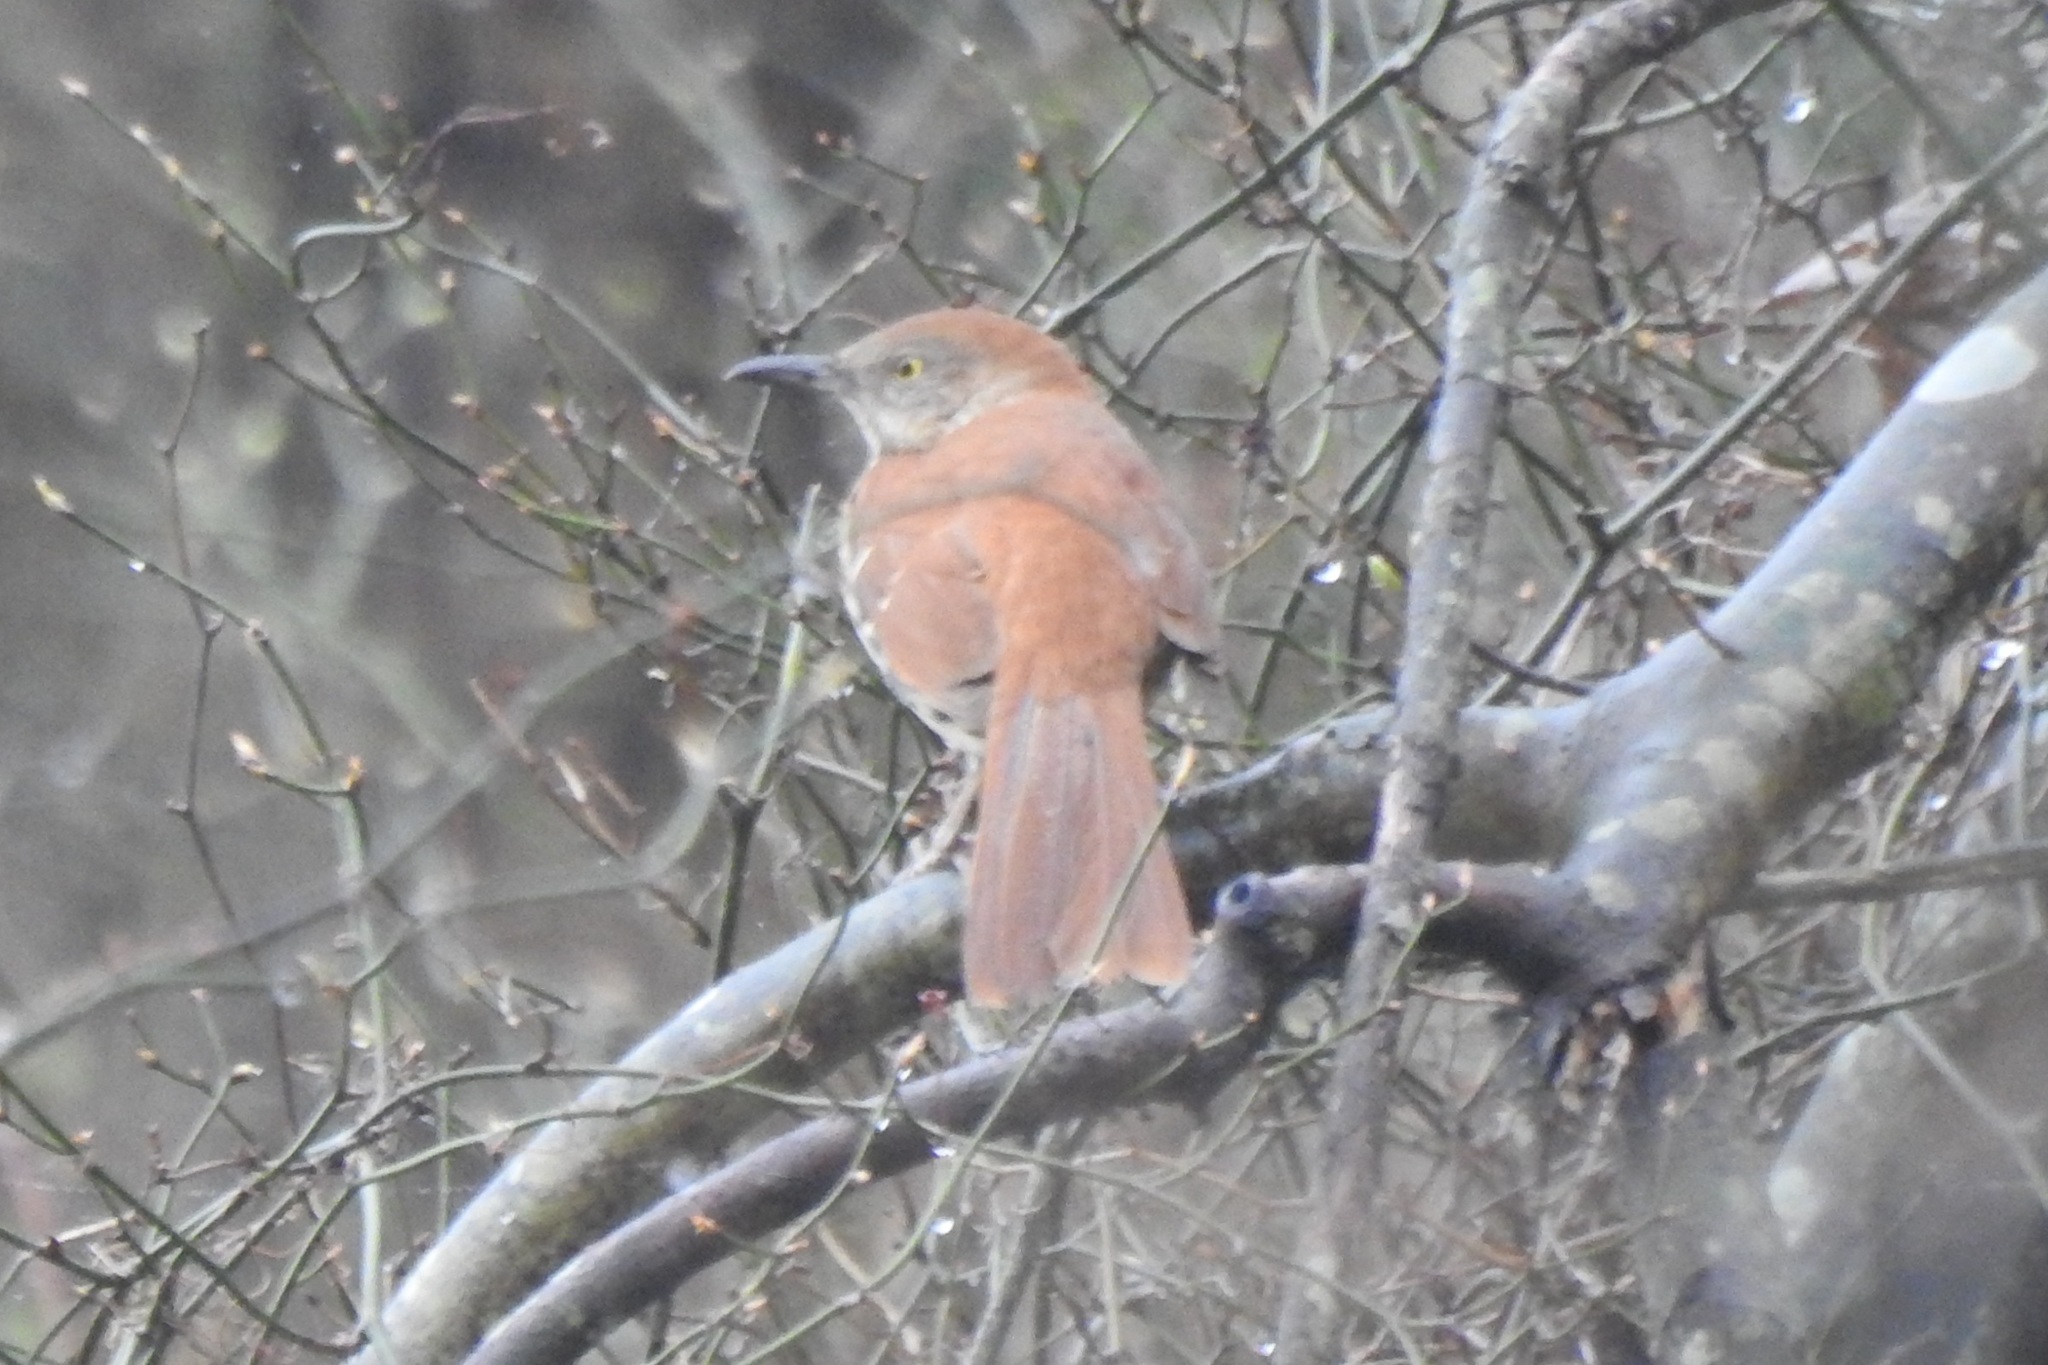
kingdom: Animalia
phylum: Chordata
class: Aves
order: Passeriformes
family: Mimidae
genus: Toxostoma
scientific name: Toxostoma rufum
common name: Brown thrasher
